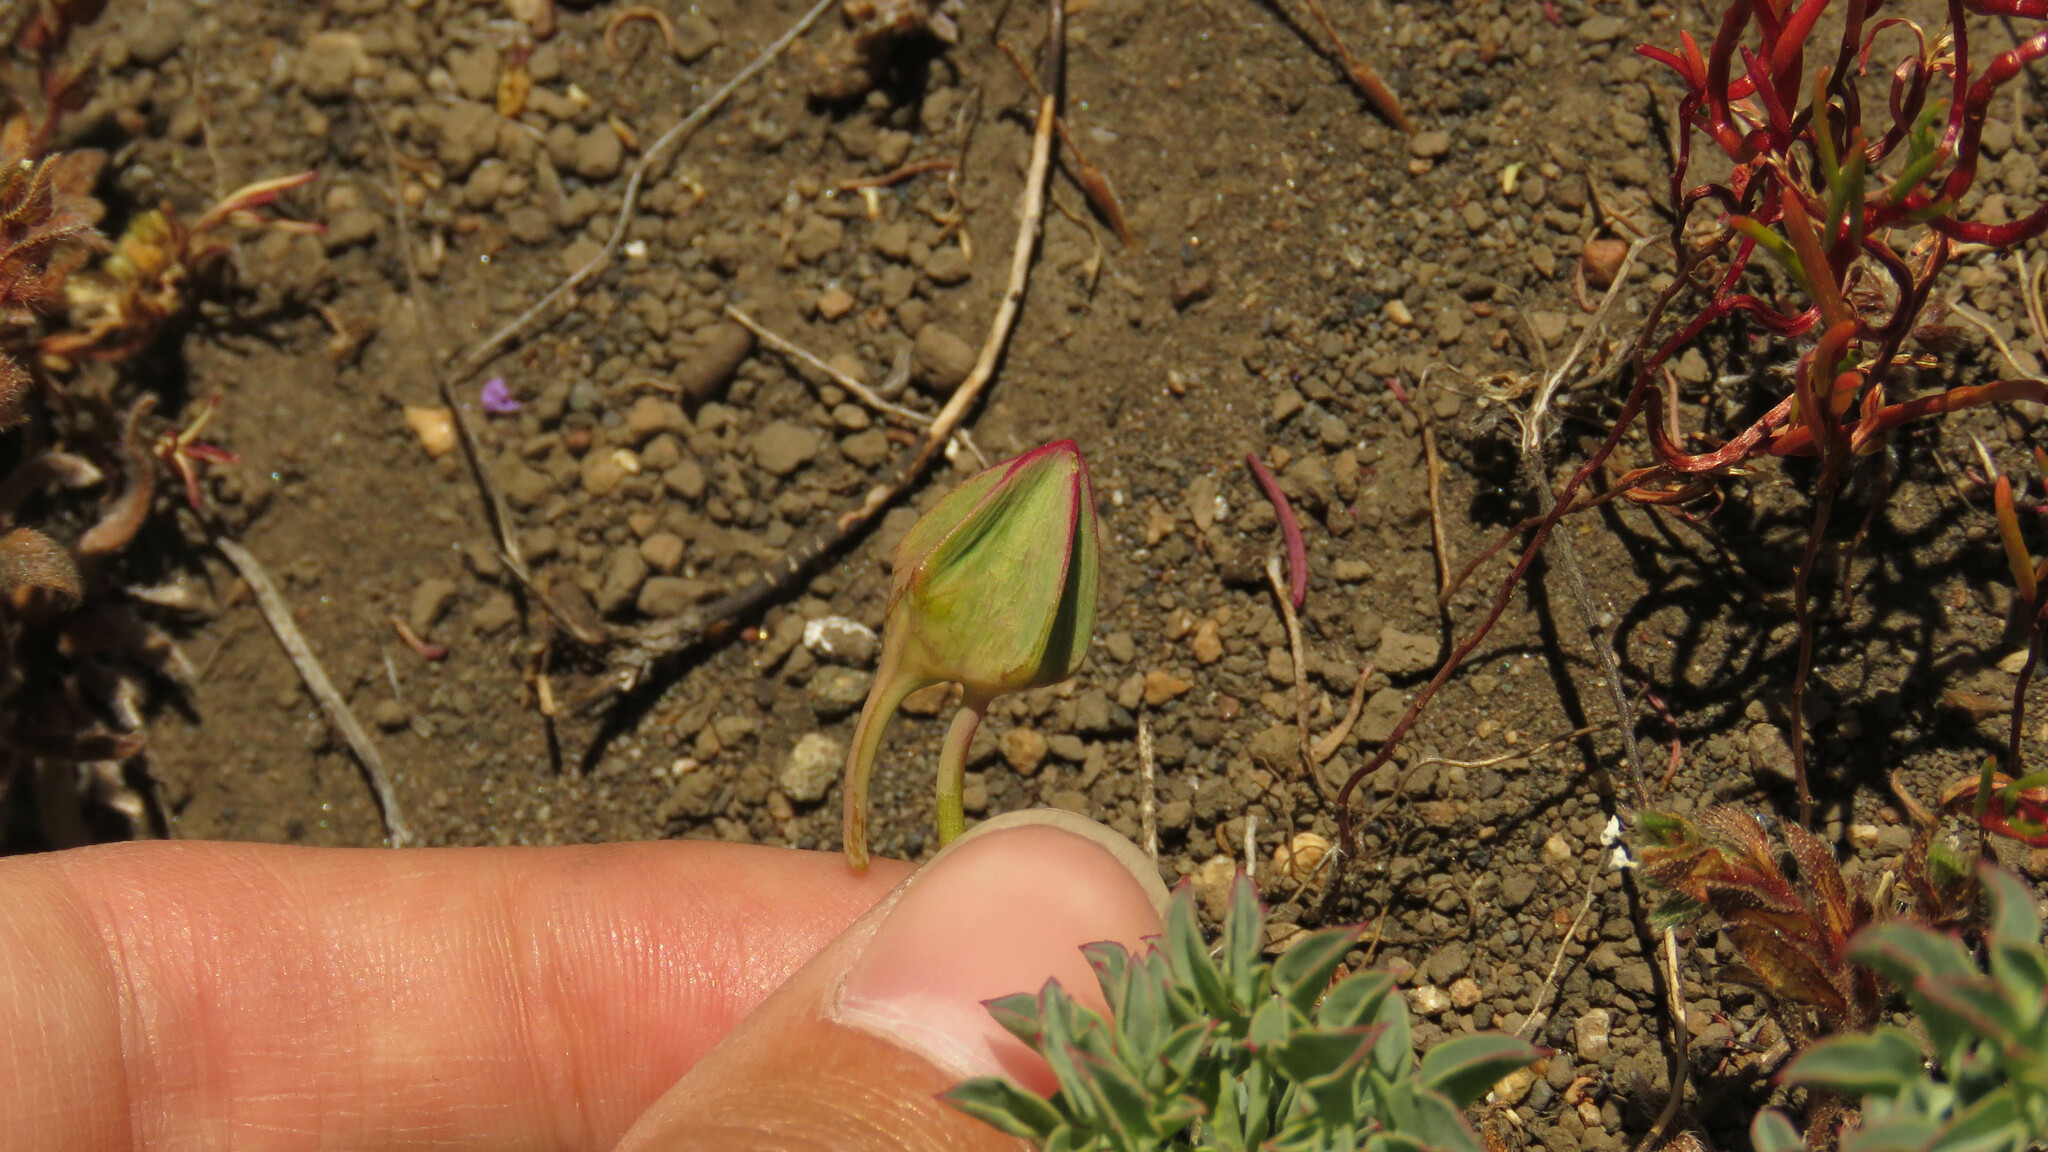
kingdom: Plantae
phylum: Tracheophyta
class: Magnoliopsida
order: Brassicales
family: Tropaeolaceae
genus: Tropaeolum
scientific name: Tropaeolum incisum
